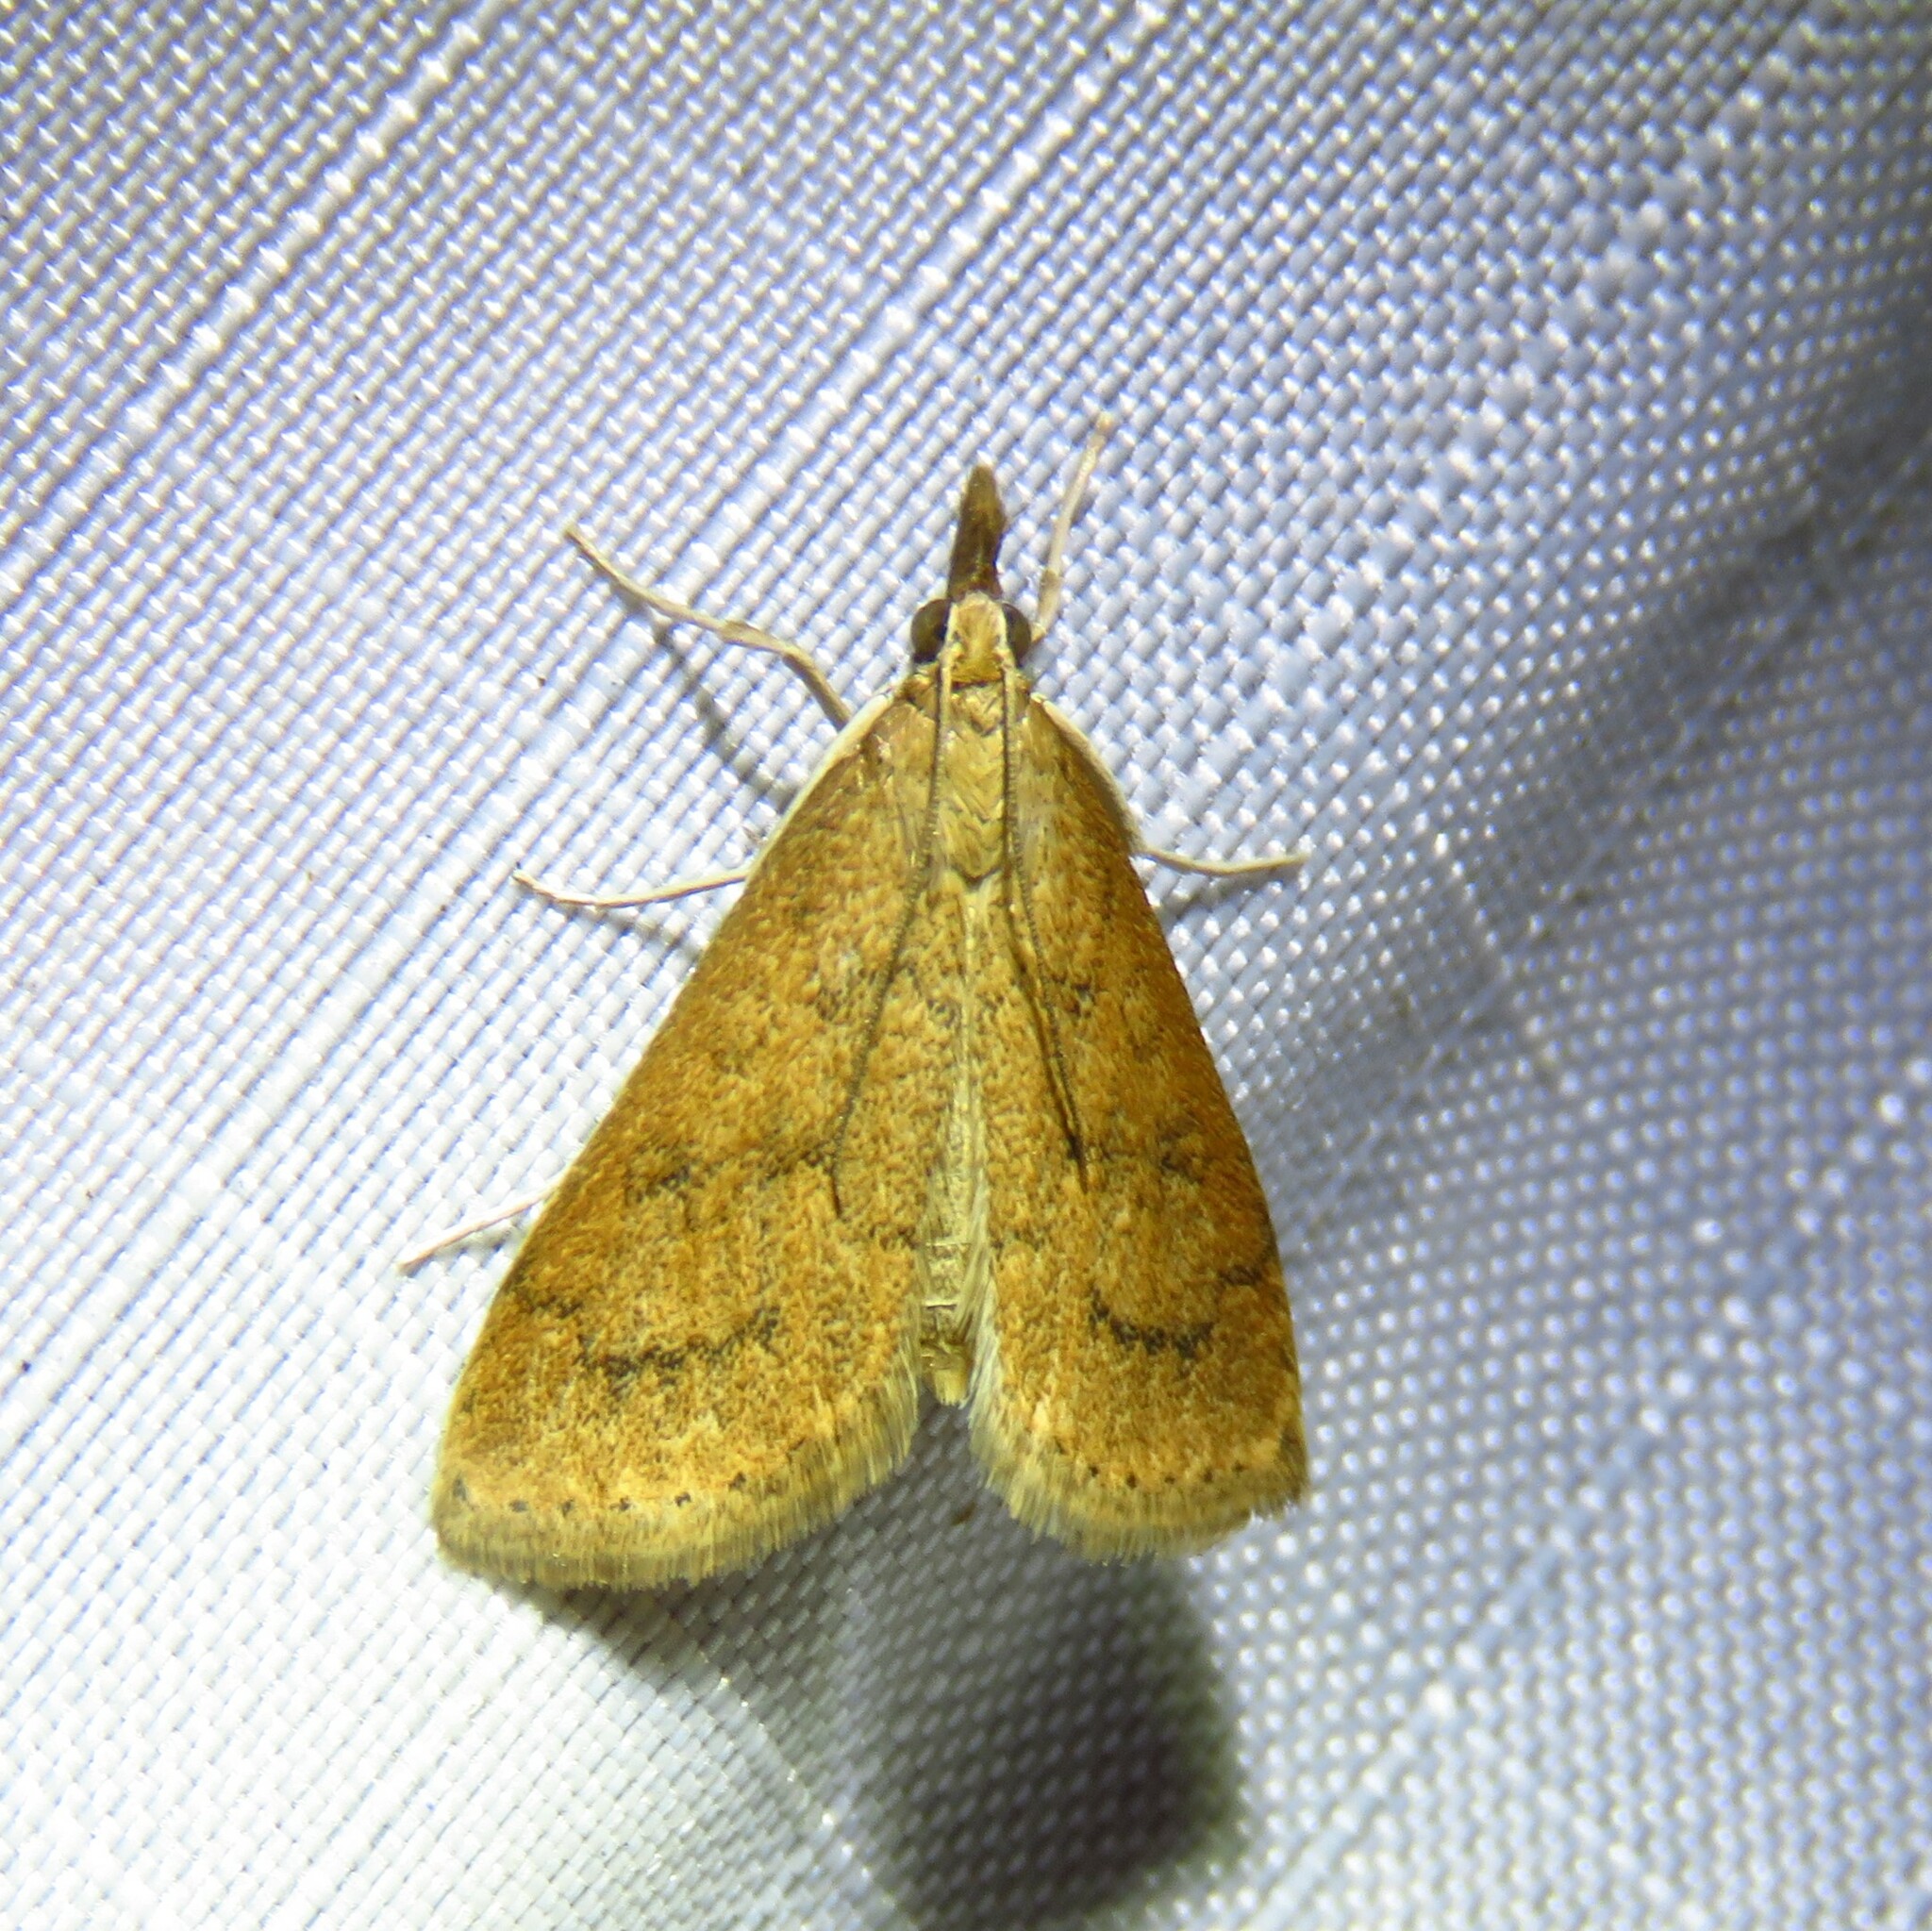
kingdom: Animalia
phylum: Arthropoda
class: Insecta
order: Lepidoptera
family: Crambidae
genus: Udea
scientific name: Udea rubigalis
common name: Celery leaftier moth
